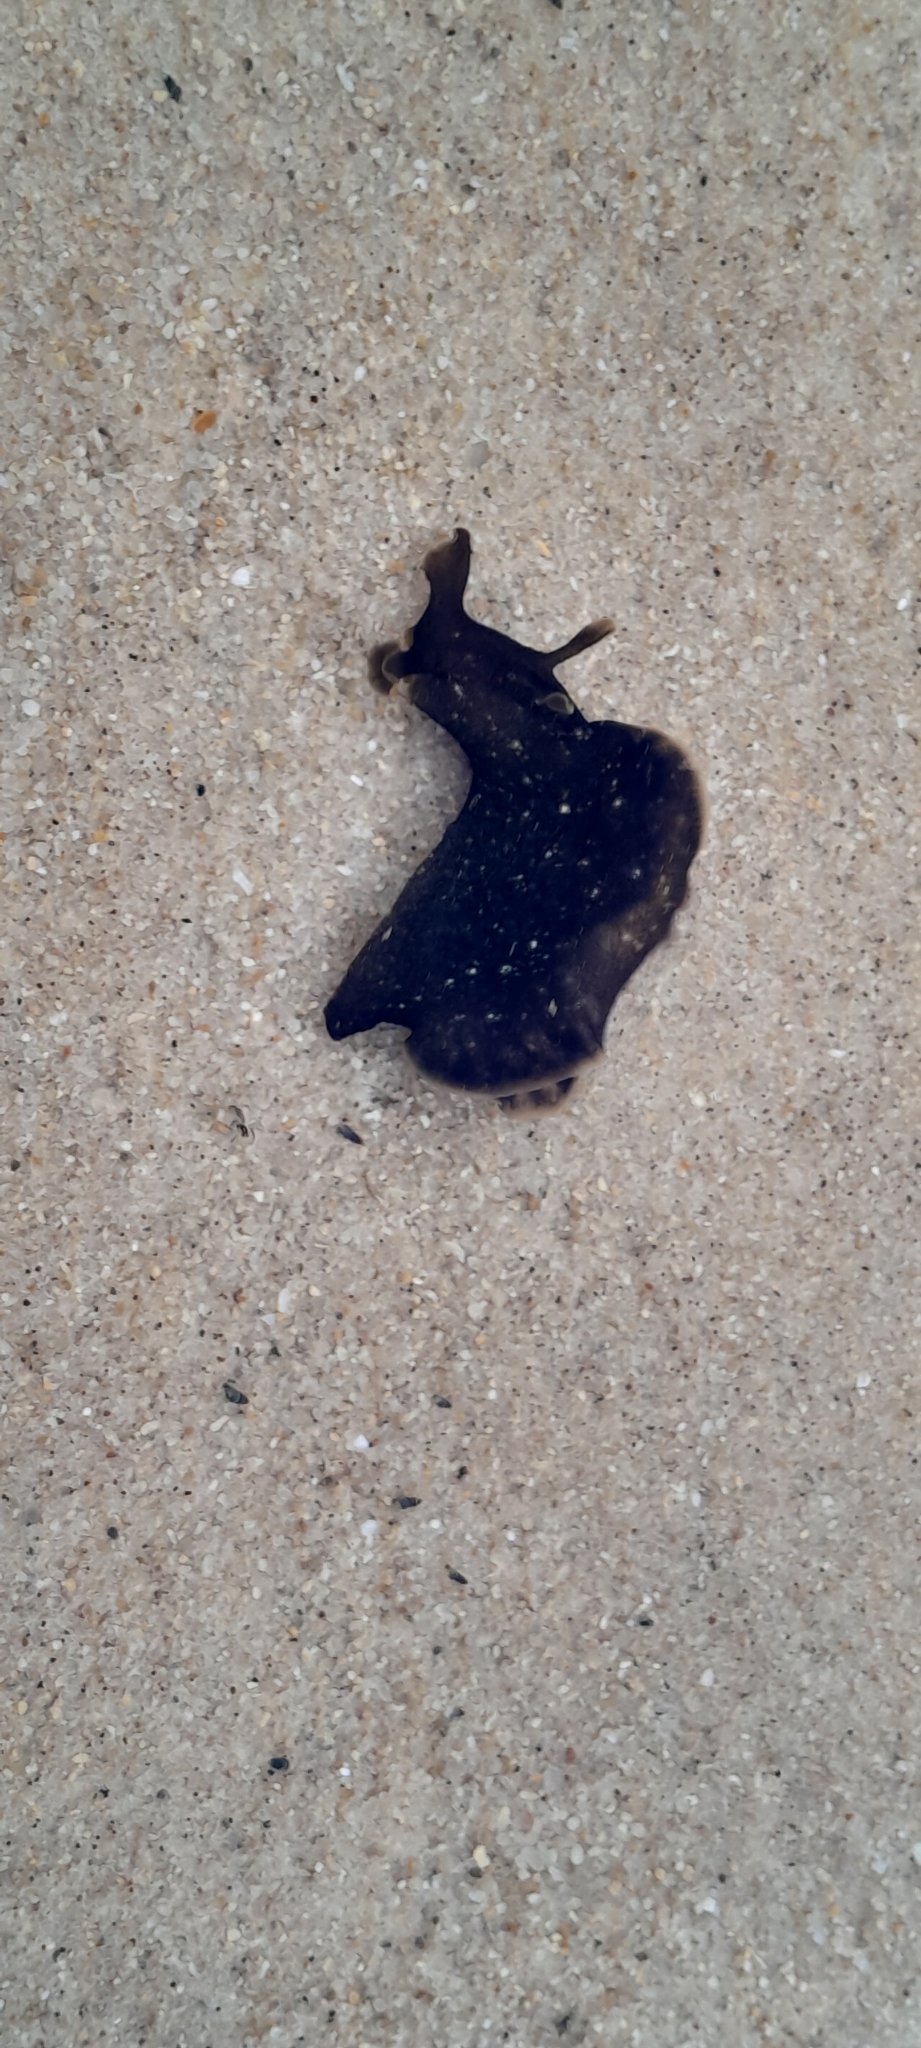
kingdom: Animalia
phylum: Mollusca
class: Gastropoda
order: Aplysiida
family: Aplysiidae
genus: Aplysia
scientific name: Aplysia fasciata
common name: Banded sea hare
